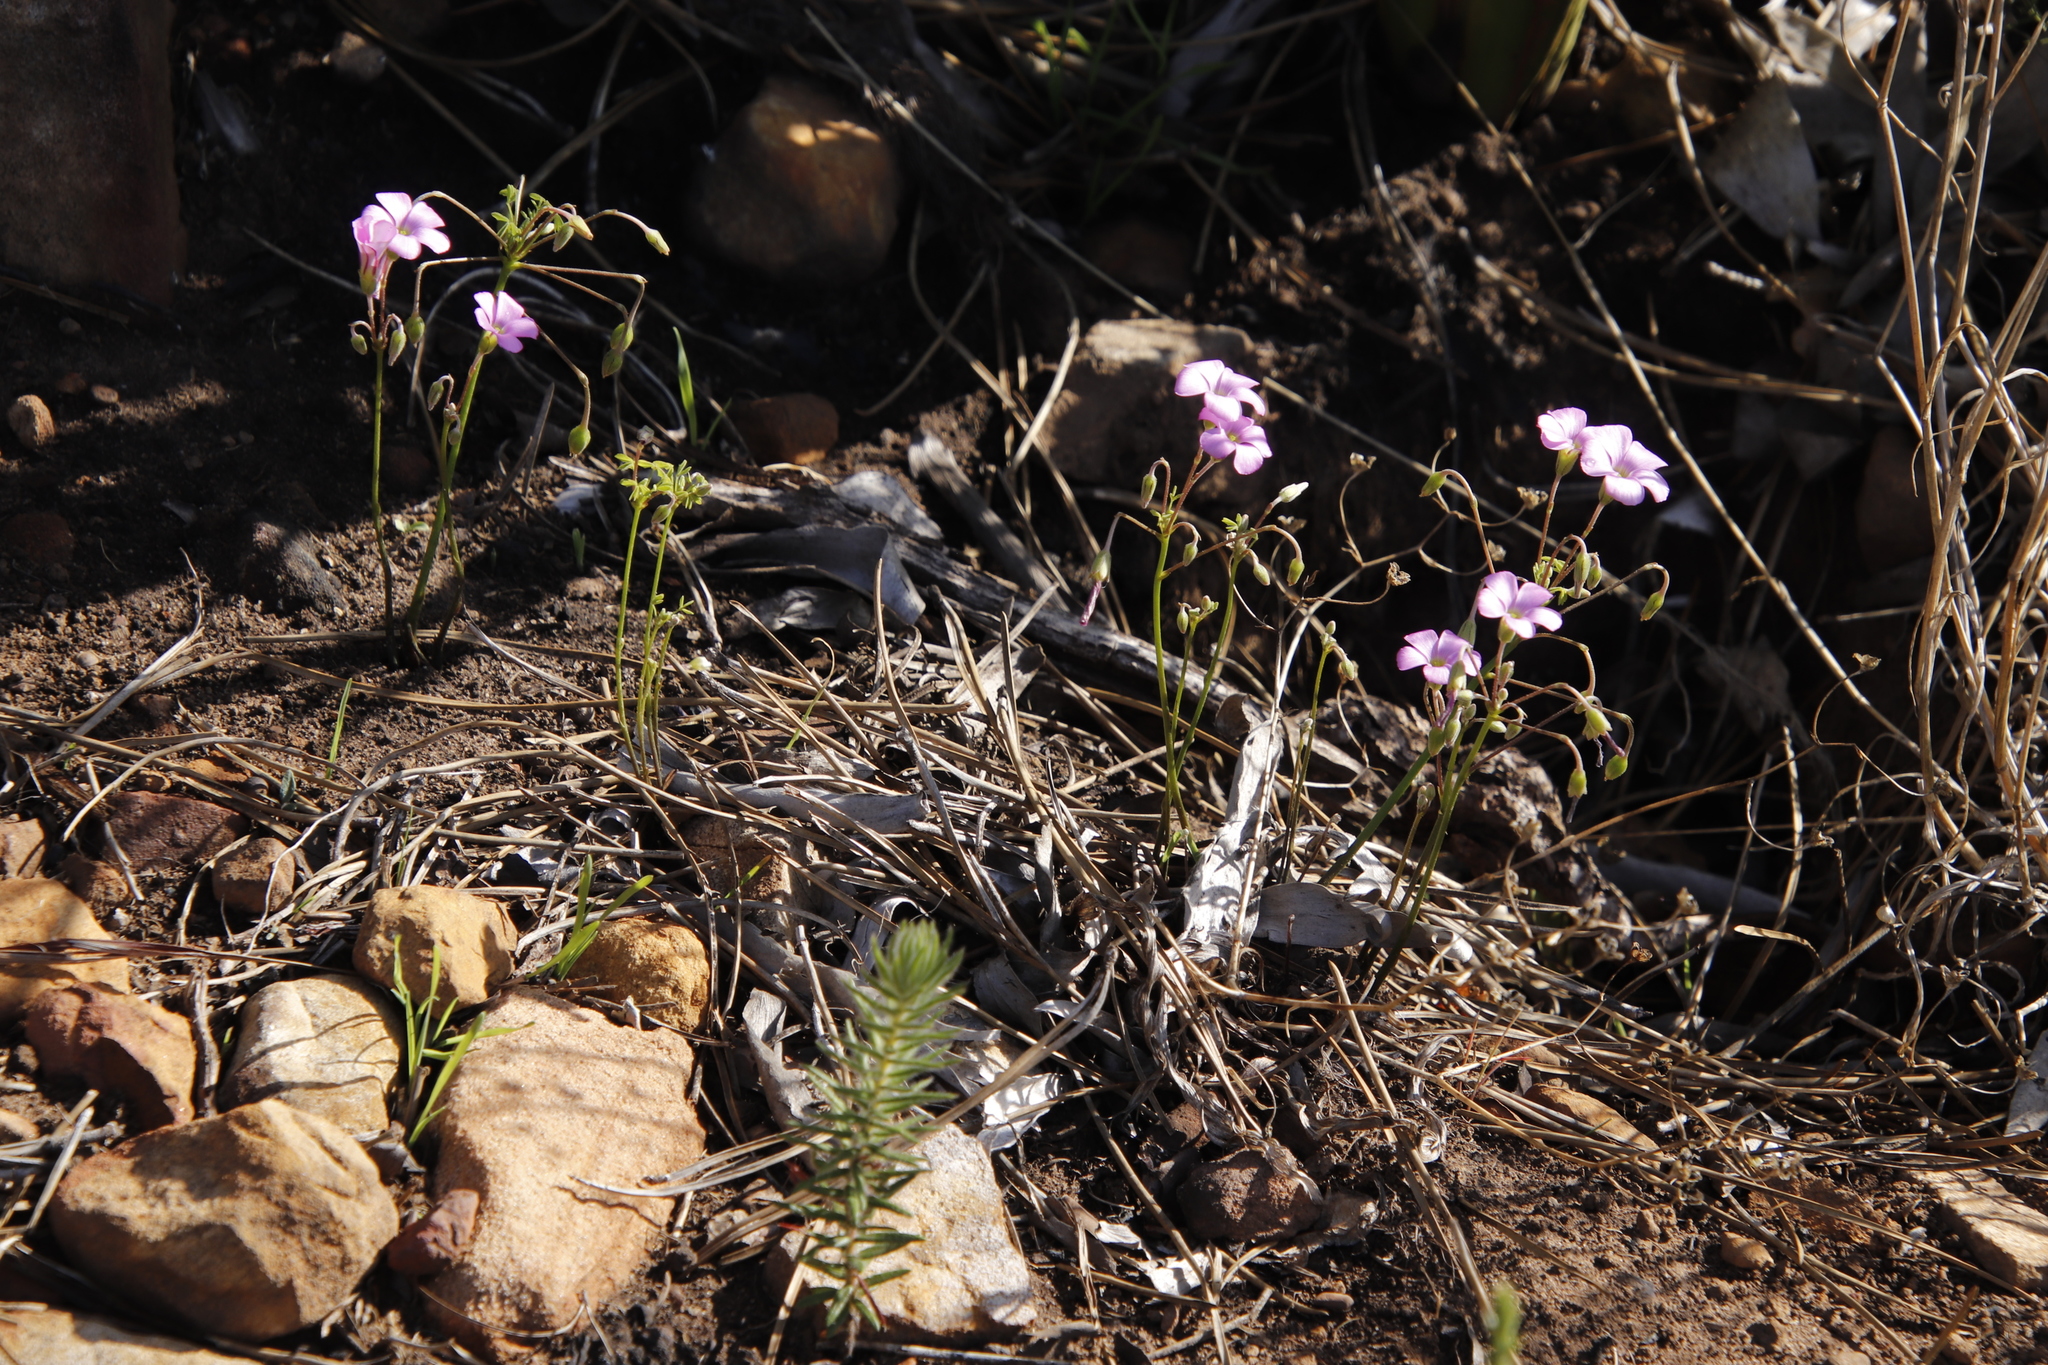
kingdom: Plantae
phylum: Tracheophyta
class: Magnoliopsida
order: Oxalidales
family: Oxalidaceae
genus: Oxalis
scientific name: Oxalis bifida
